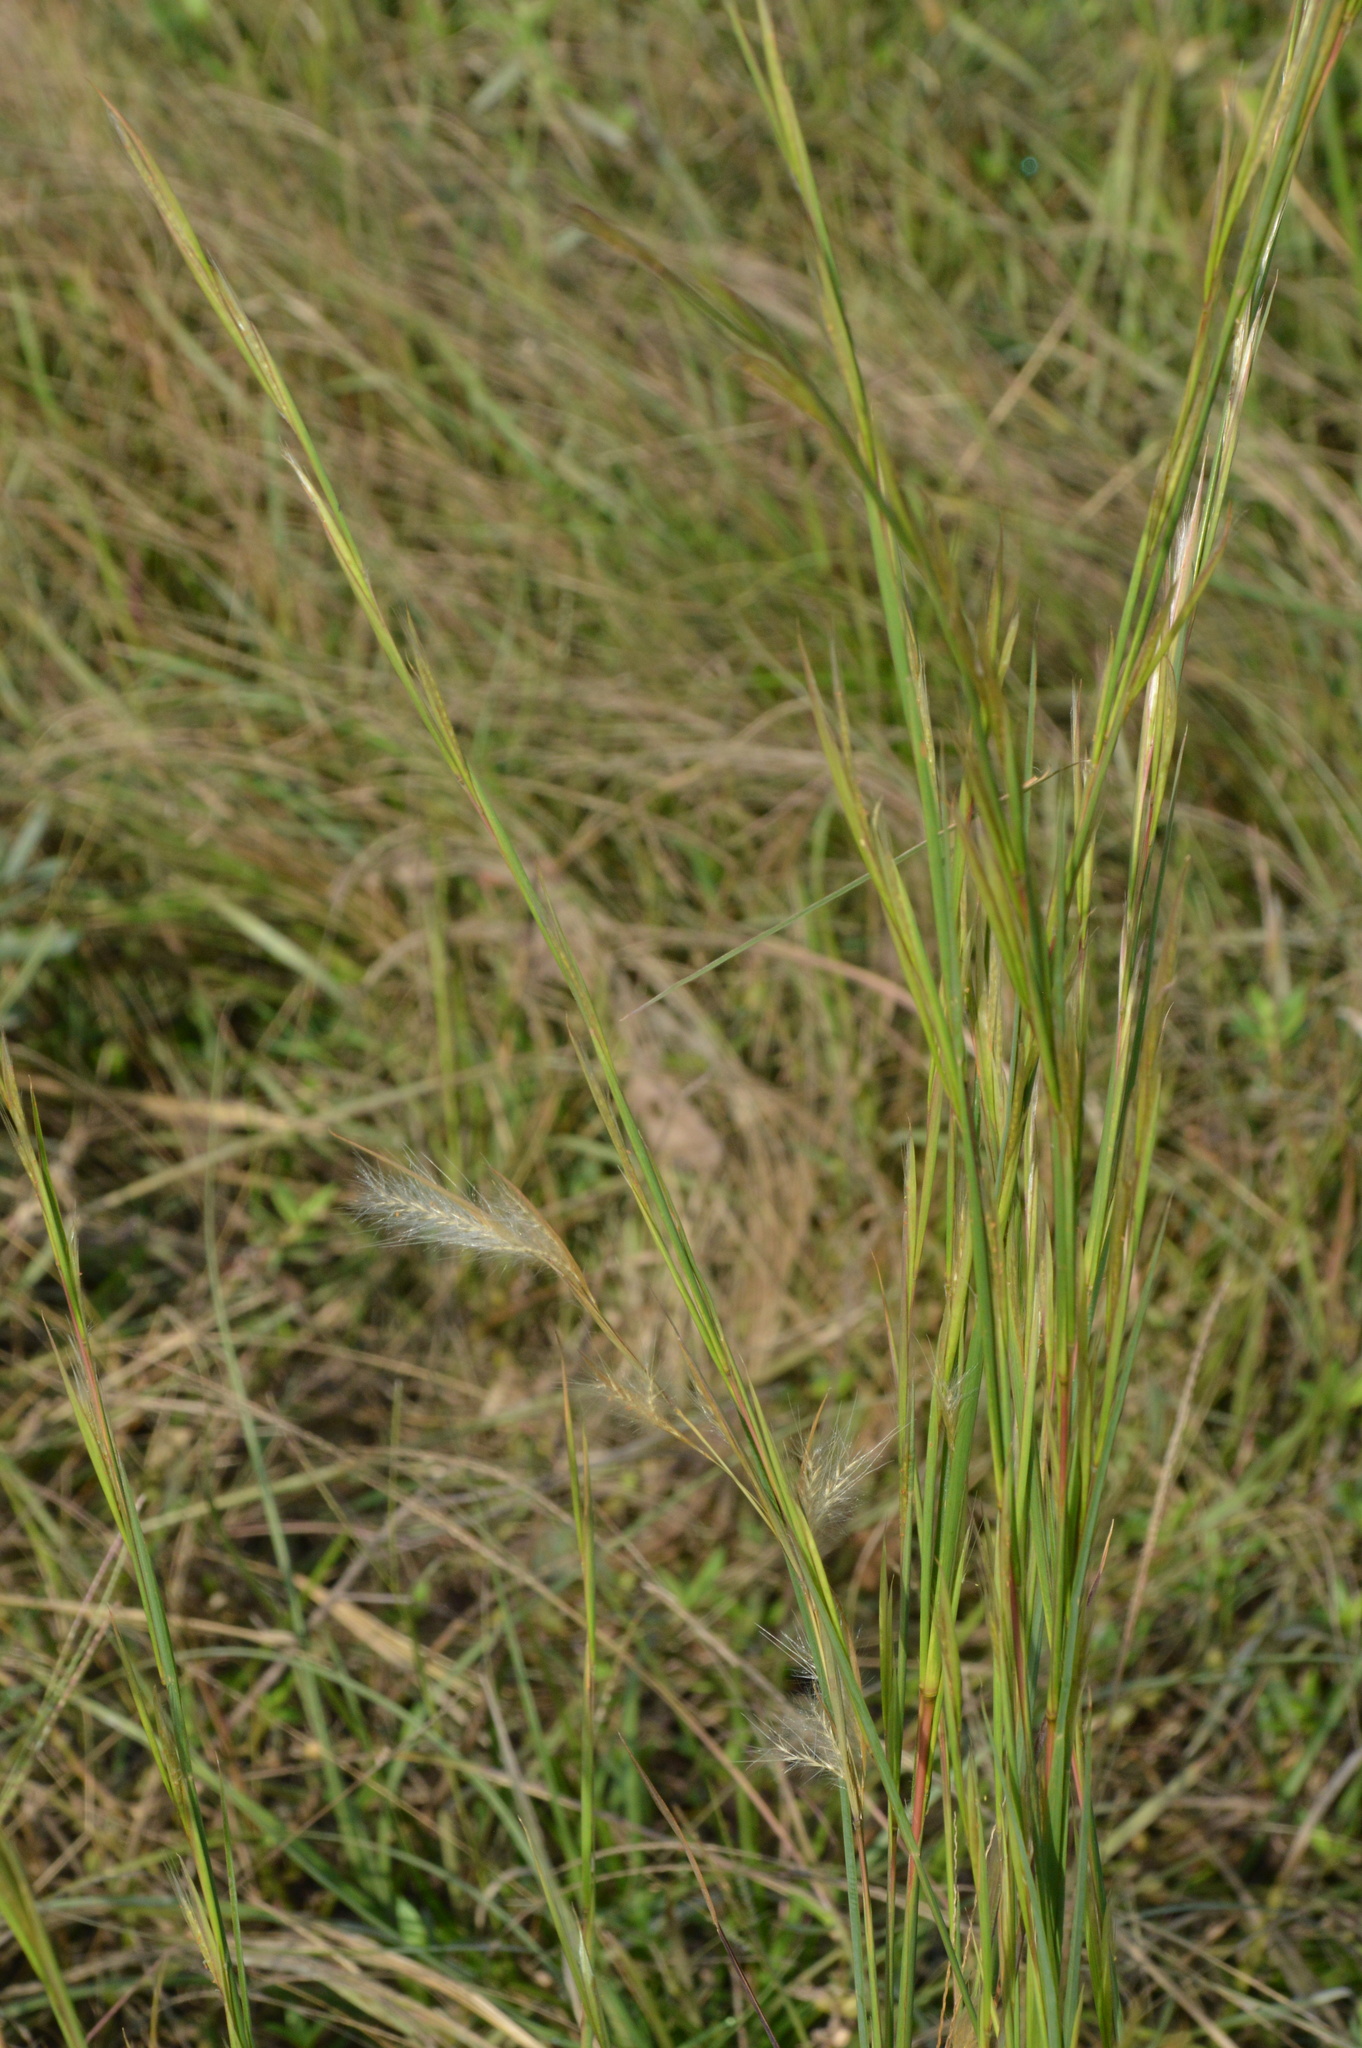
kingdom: Plantae
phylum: Tracheophyta
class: Liliopsida
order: Poales
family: Poaceae
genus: Andropogon
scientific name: Andropogon virginicus
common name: Broomsedge bluestem
